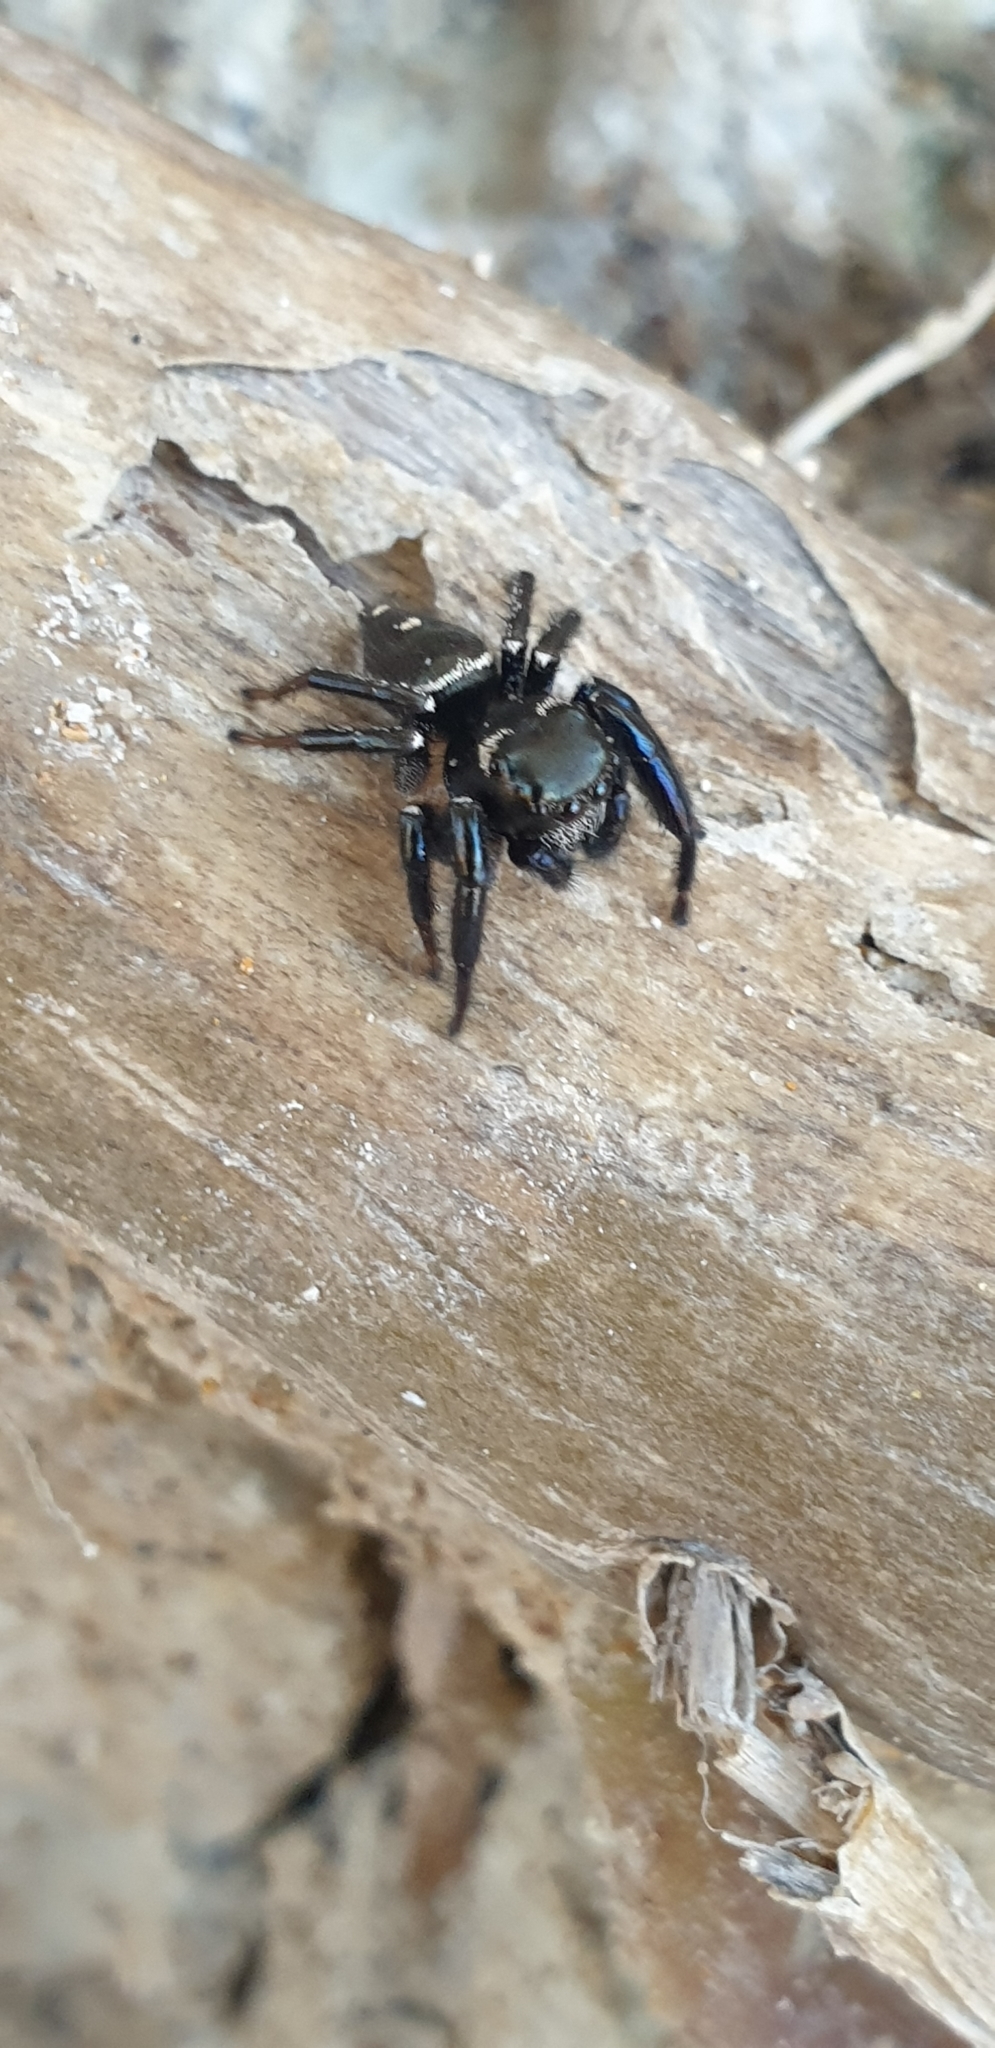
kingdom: Animalia
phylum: Arthropoda
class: Arachnida
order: Araneae
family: Salticidae
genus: Zenodorus
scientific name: Zenodorus orbiculatus
